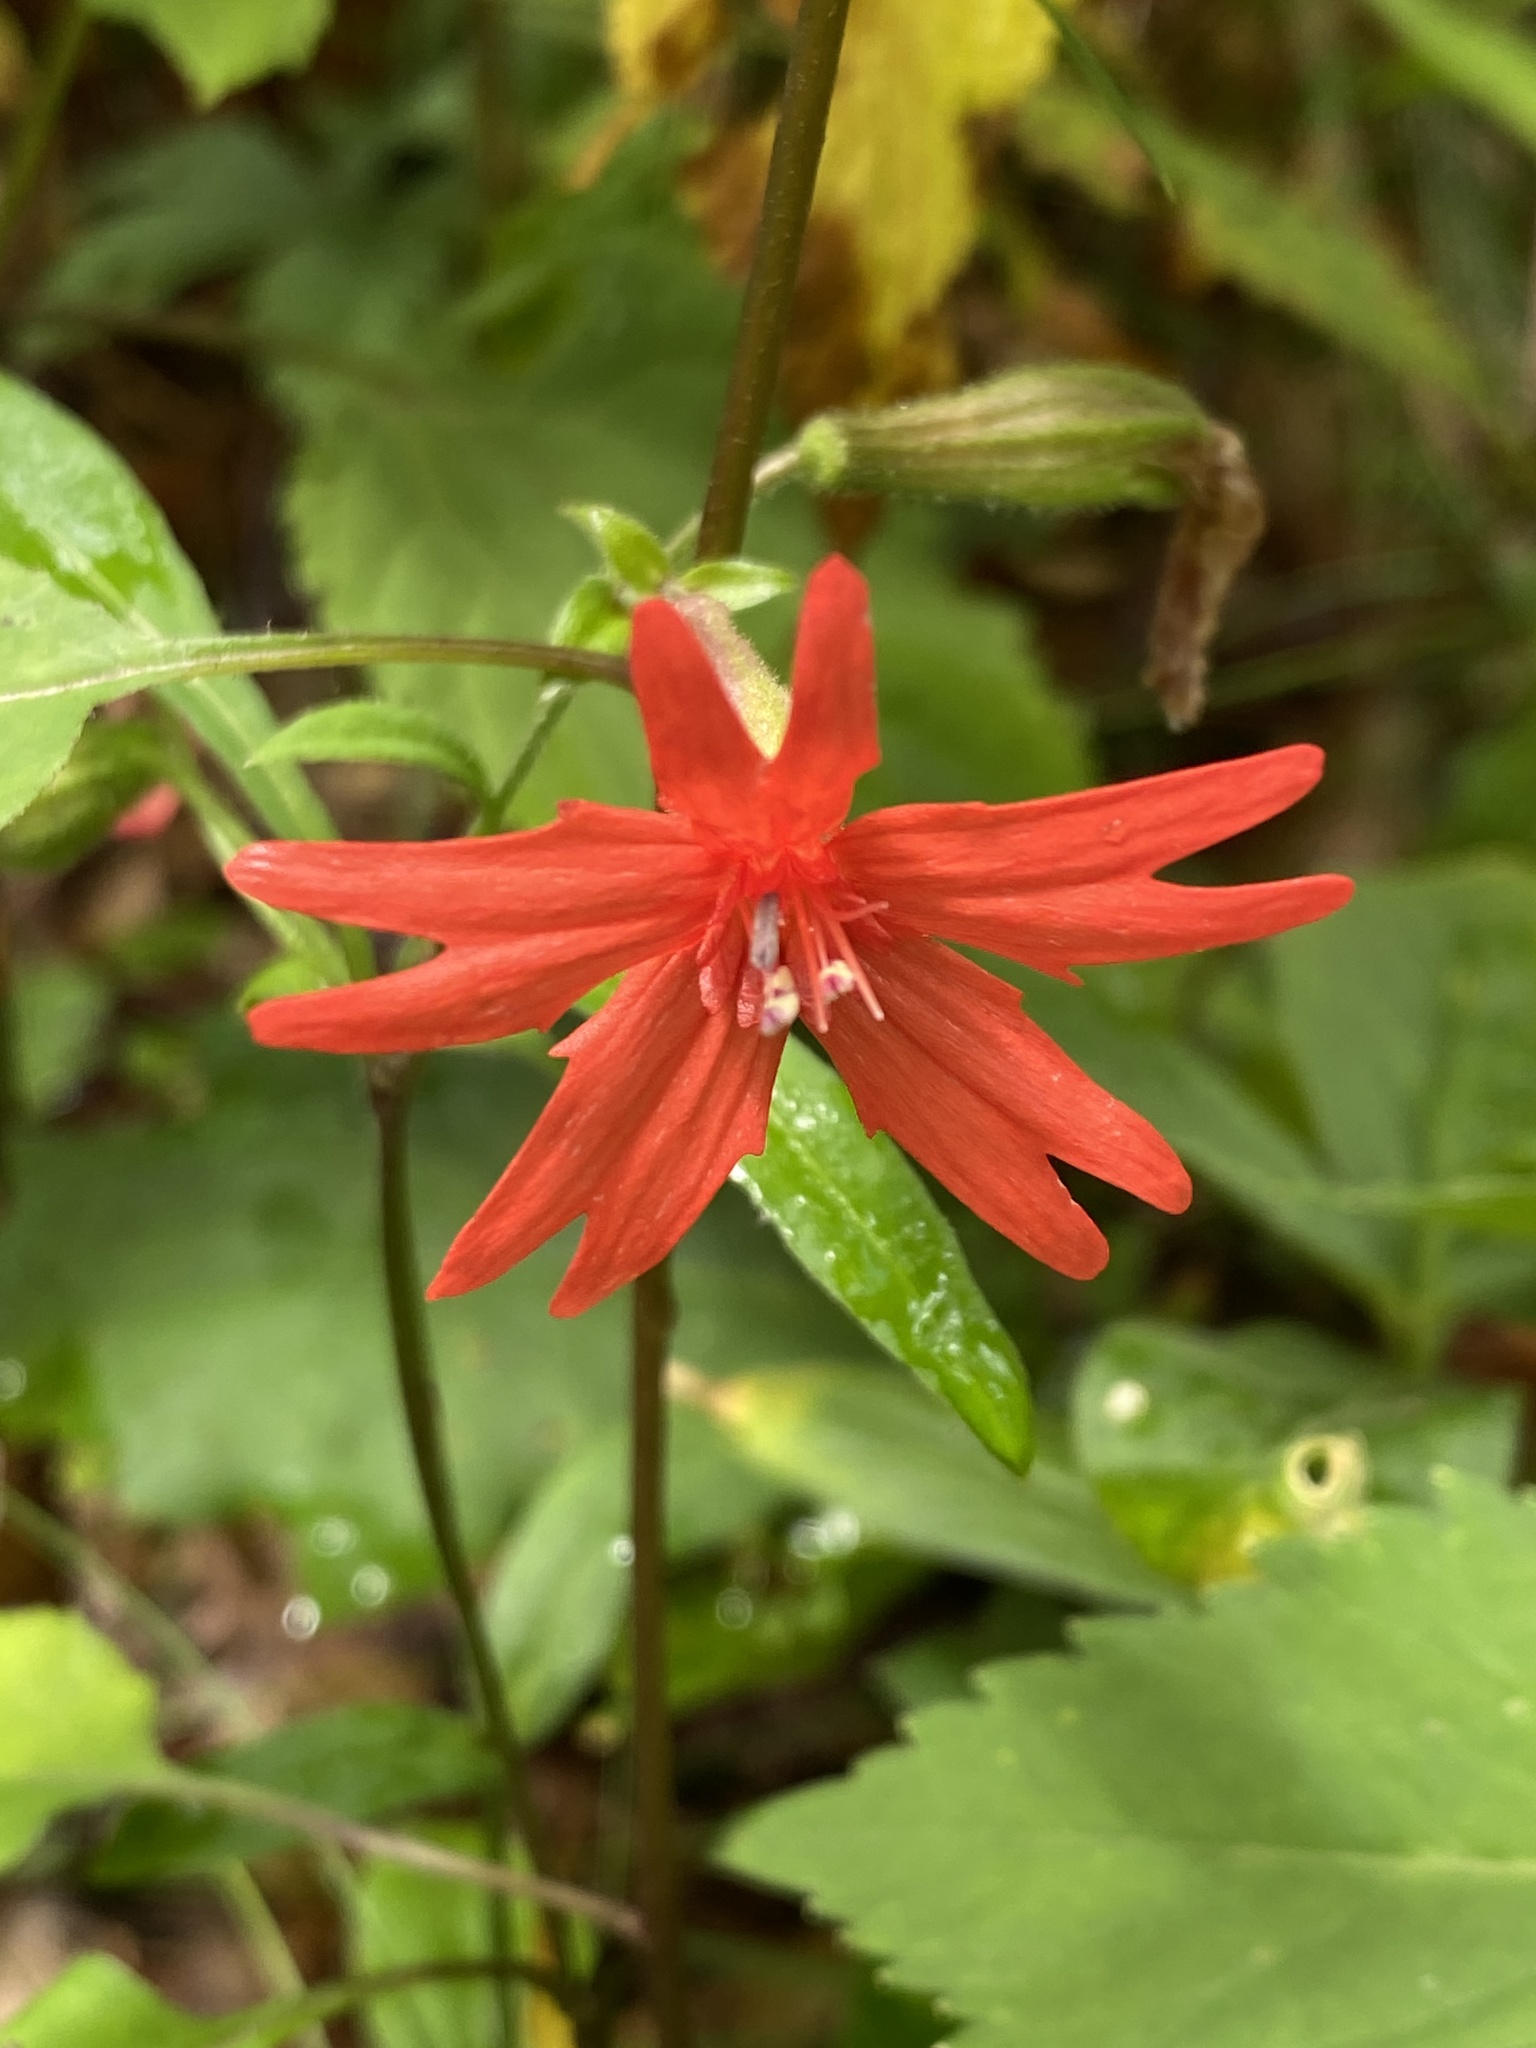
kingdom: Plantae
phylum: Tracheophyta
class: Magnoliopsida
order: Caryophyllales
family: Caryophyllaceae
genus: Silene
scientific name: Silene virginica
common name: Fire-pink
